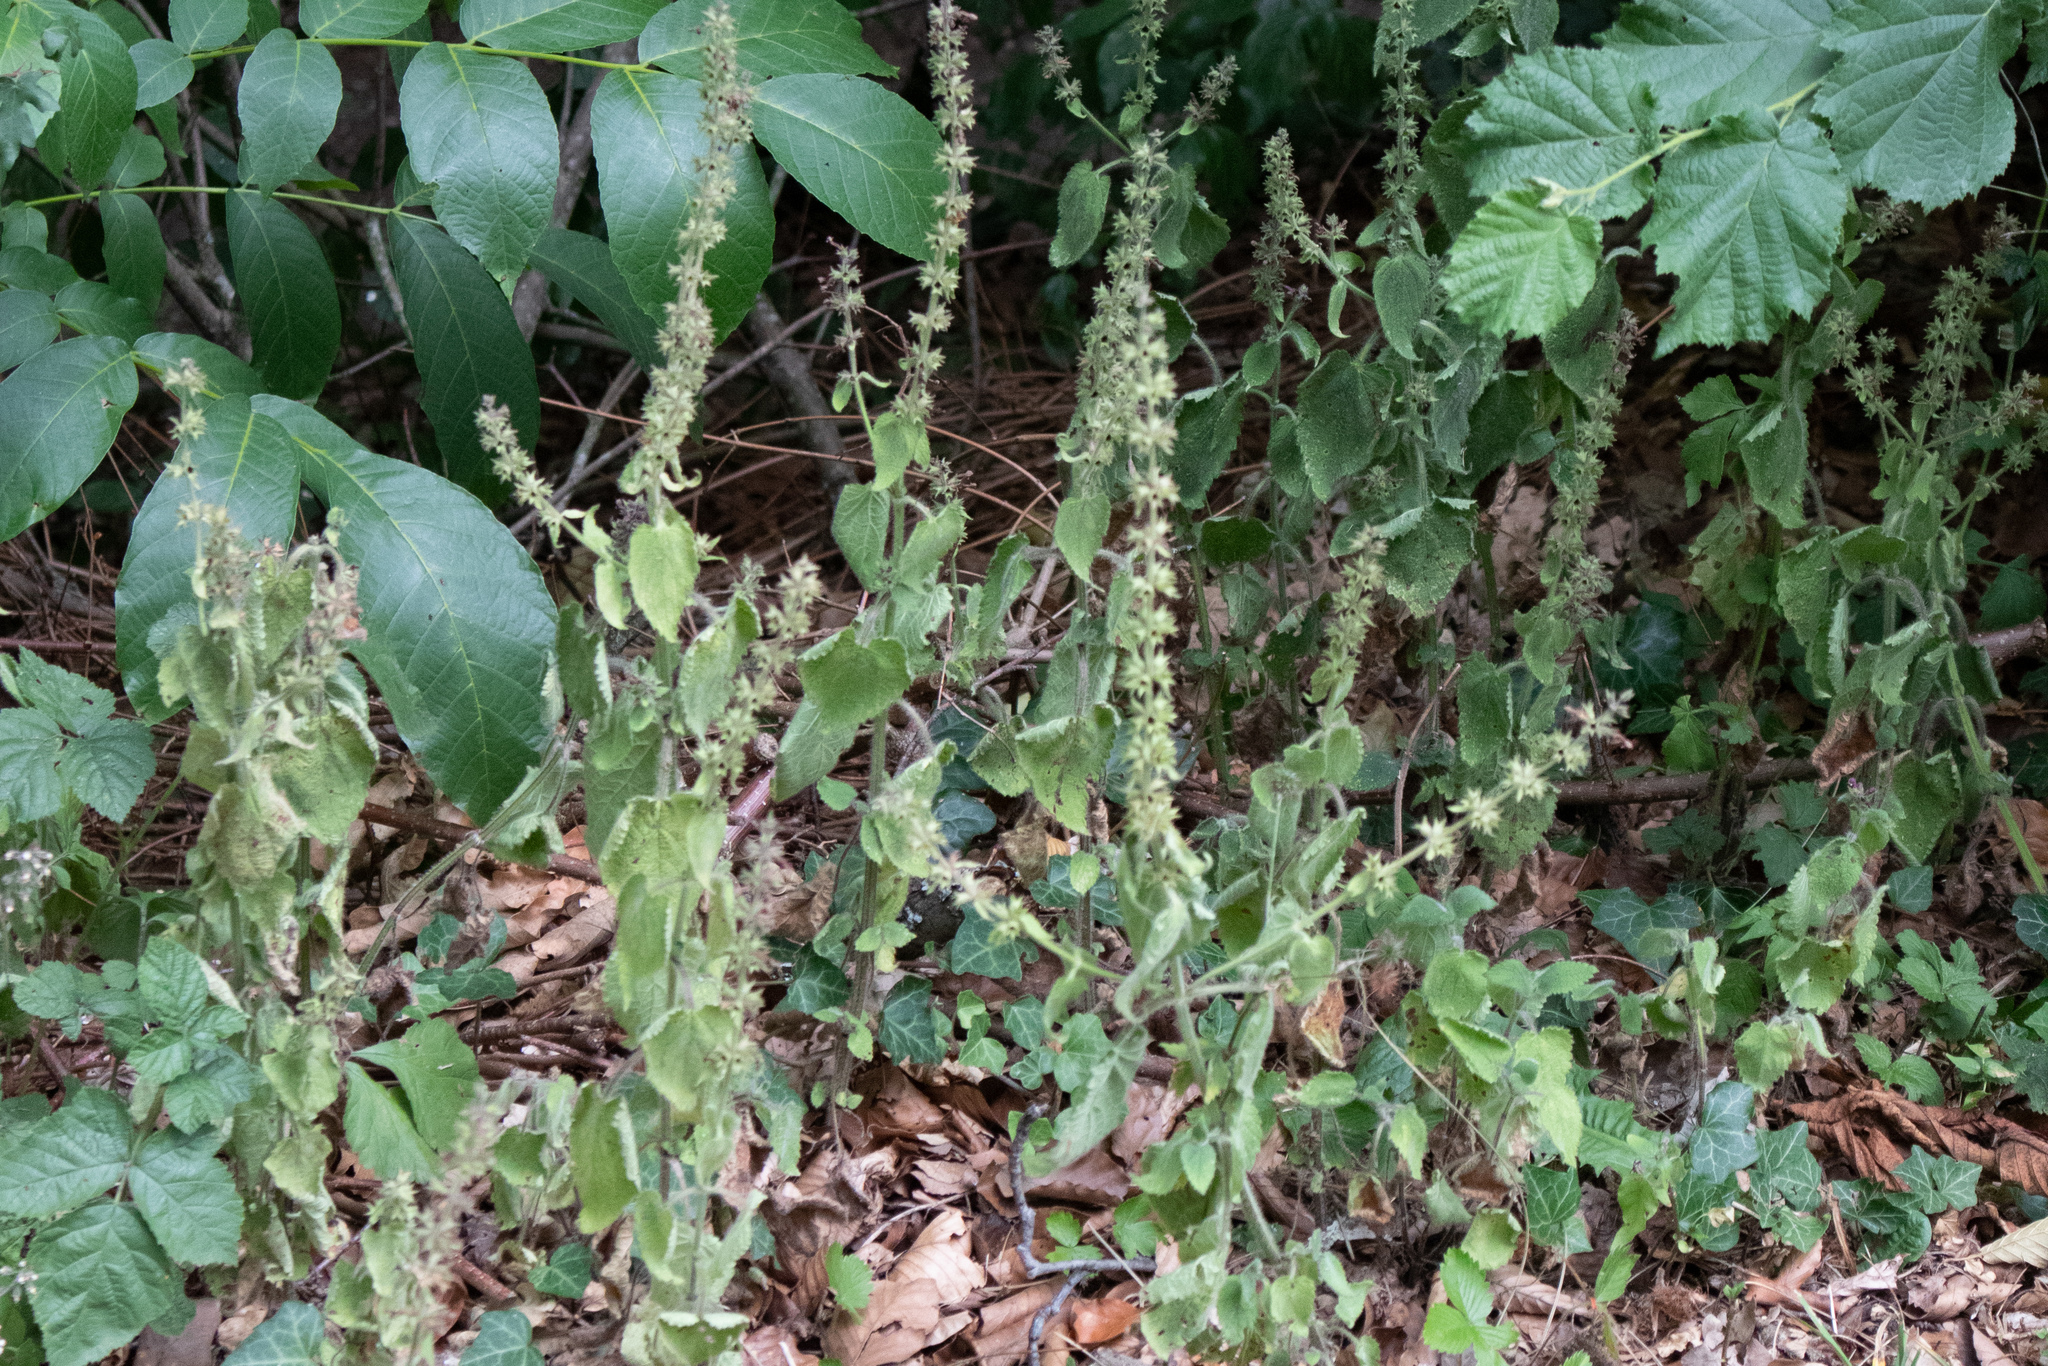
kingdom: Plantae
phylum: Tracheophyta
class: Magnoliopsida
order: Lamiales
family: Lamiaceae
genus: Stachys
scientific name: Stachys sylvatica
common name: Hedge woundwort
